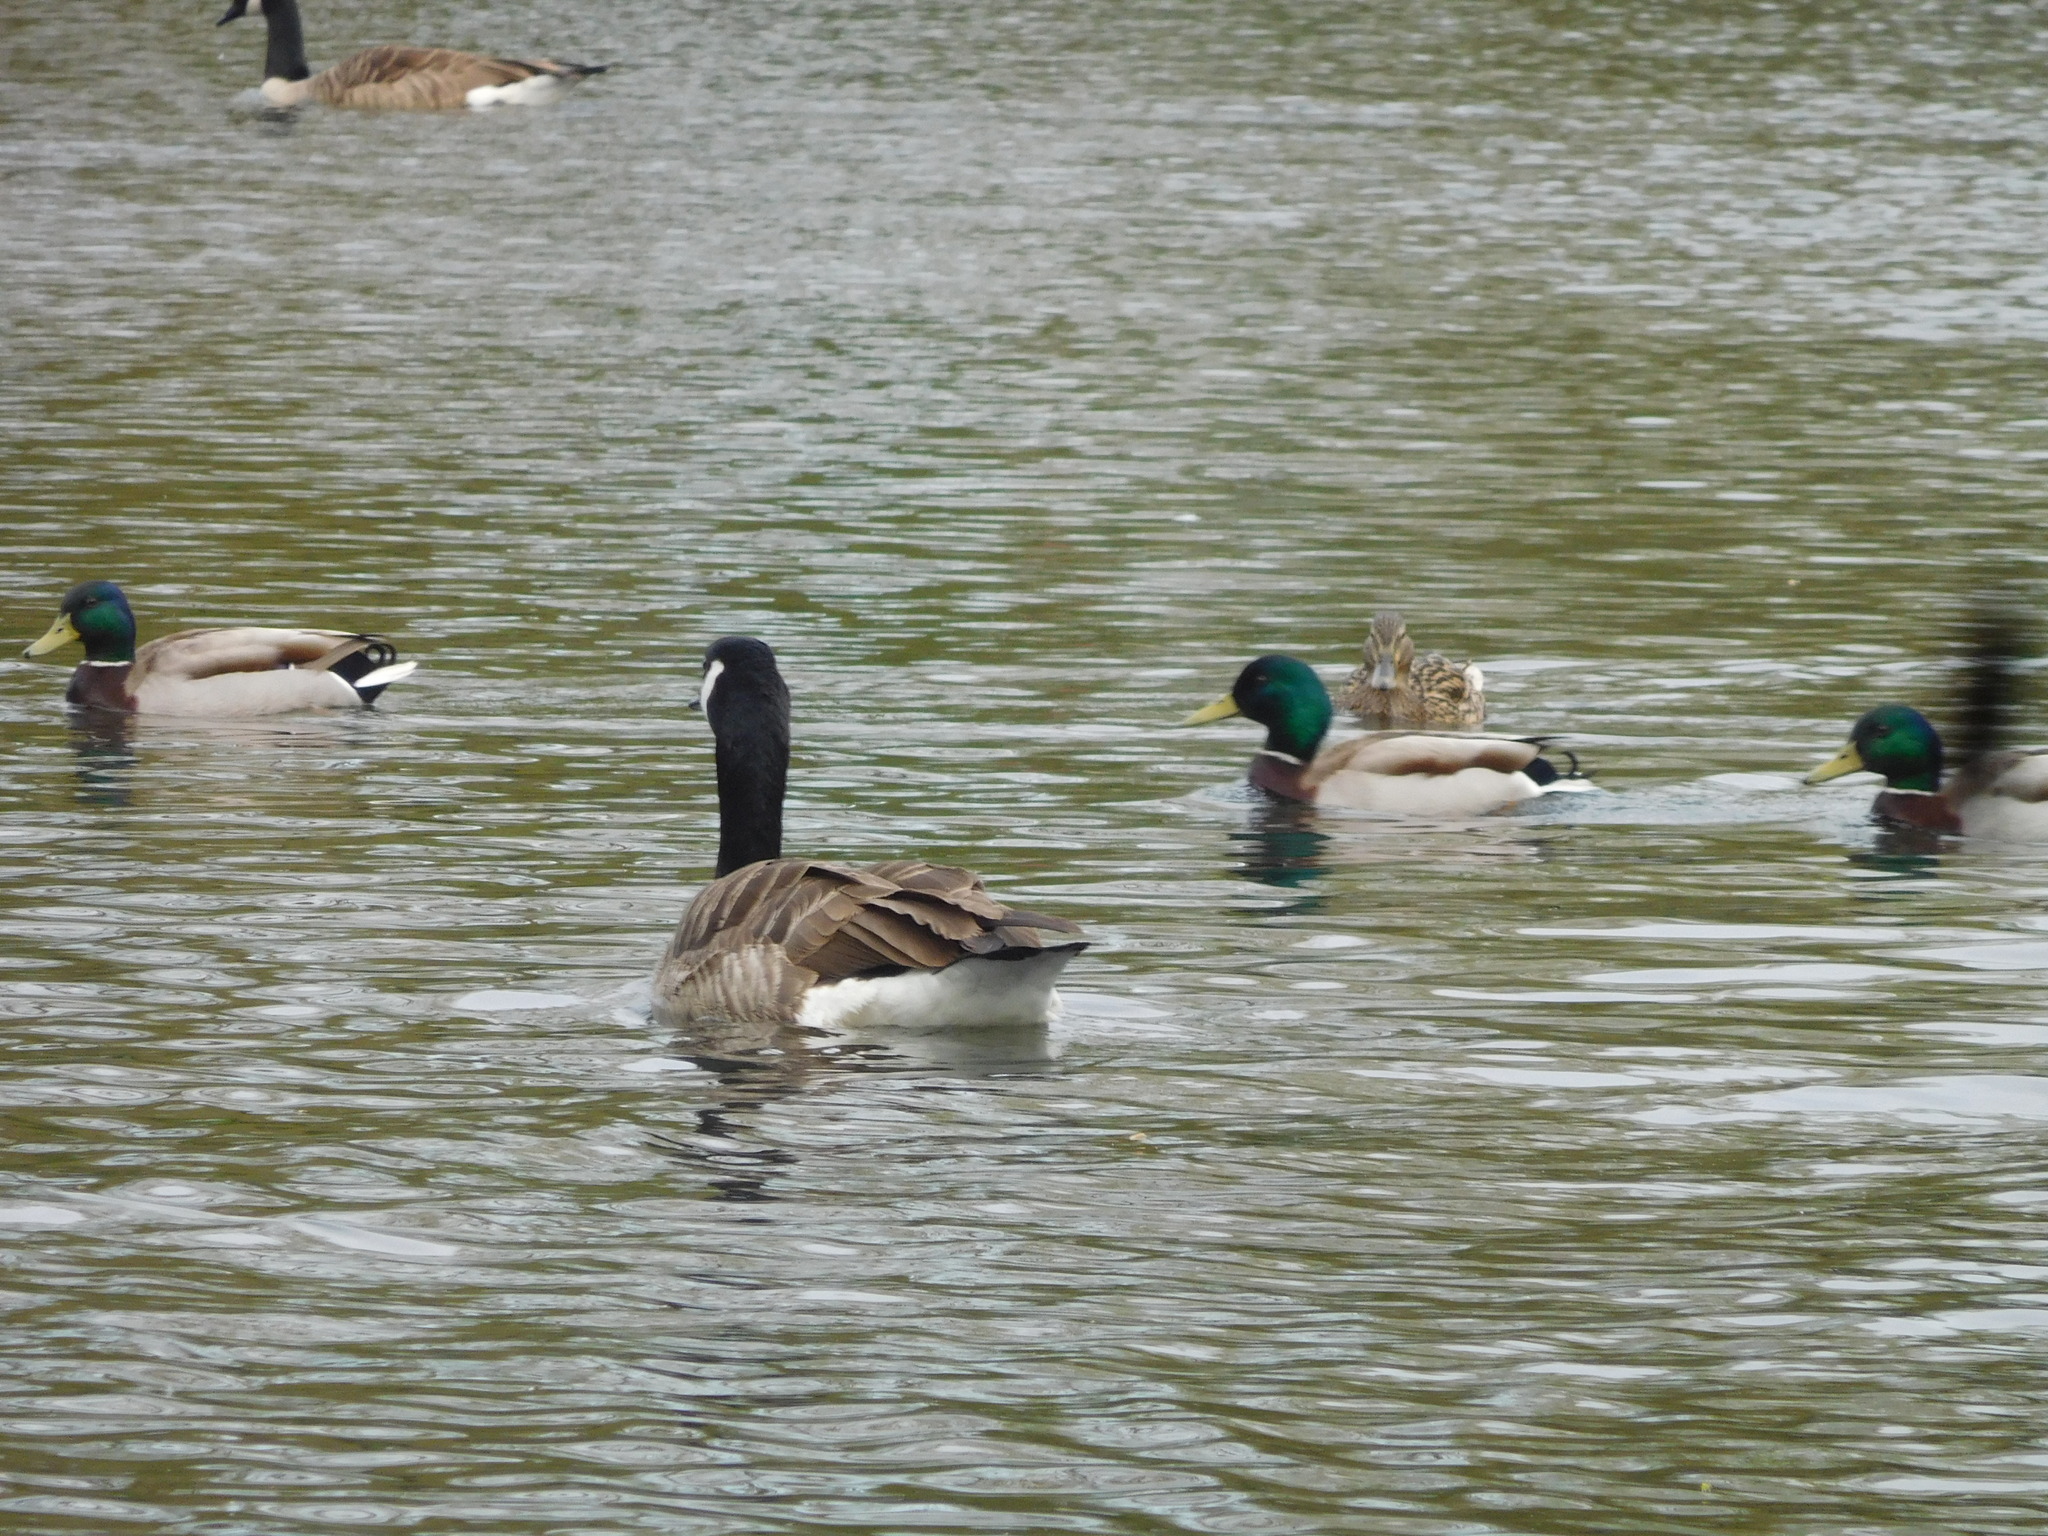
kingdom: Animalia
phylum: Chordata
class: Aves
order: Anseriformes
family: Anatidae
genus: Anas
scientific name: Anas platyrhynchos
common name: Mallard
